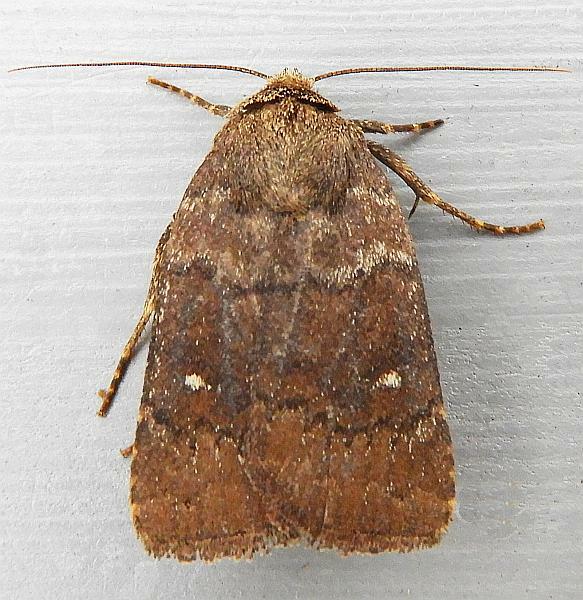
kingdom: Animalia
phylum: Arthropoda
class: Insecta
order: Lepidoptera
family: Noctuidae
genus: Pseudorthodes
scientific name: Pseudorthodes vecors
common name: Small brown quaker
